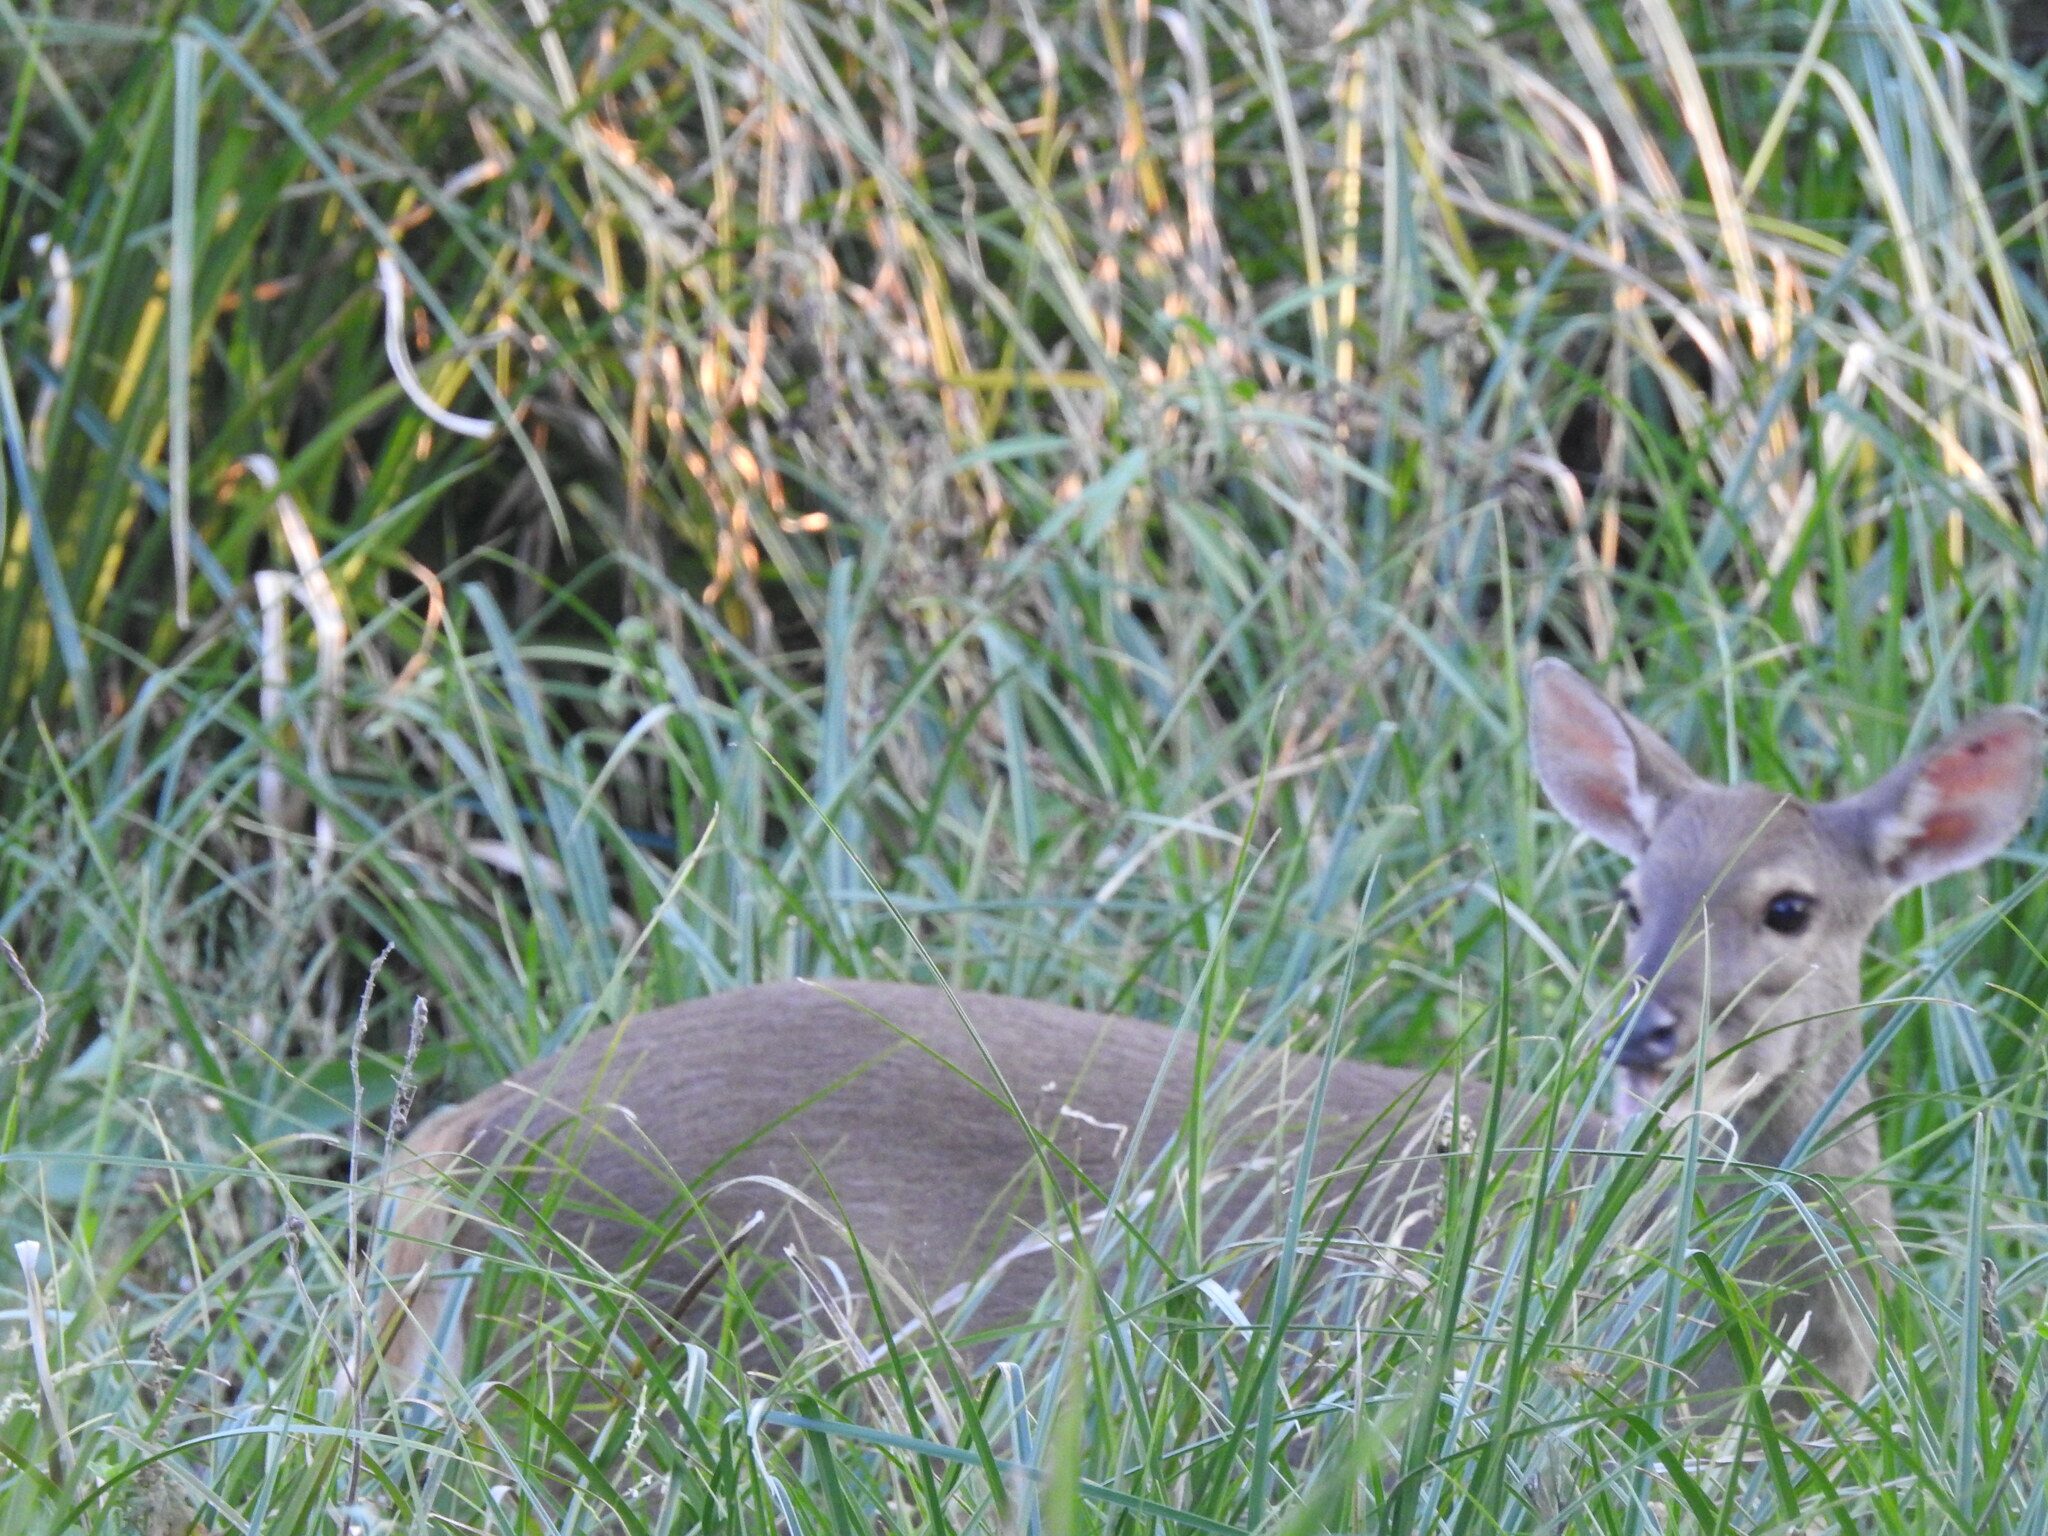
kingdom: Animalia
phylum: Chordata
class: Mammalia
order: Artiodactyla
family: Cervidae
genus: Mazama
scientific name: Mazama gouazoubira
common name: Gray brocket
